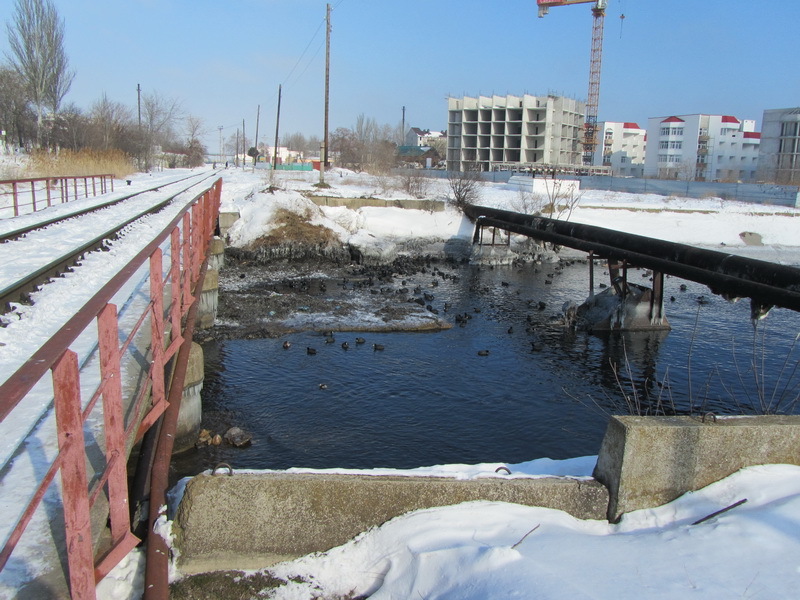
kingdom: Animalia
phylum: Chordata
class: Aves
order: Gruiformes
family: Rallidae
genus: Fulica
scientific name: Fulica atra
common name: Eurasian coot
